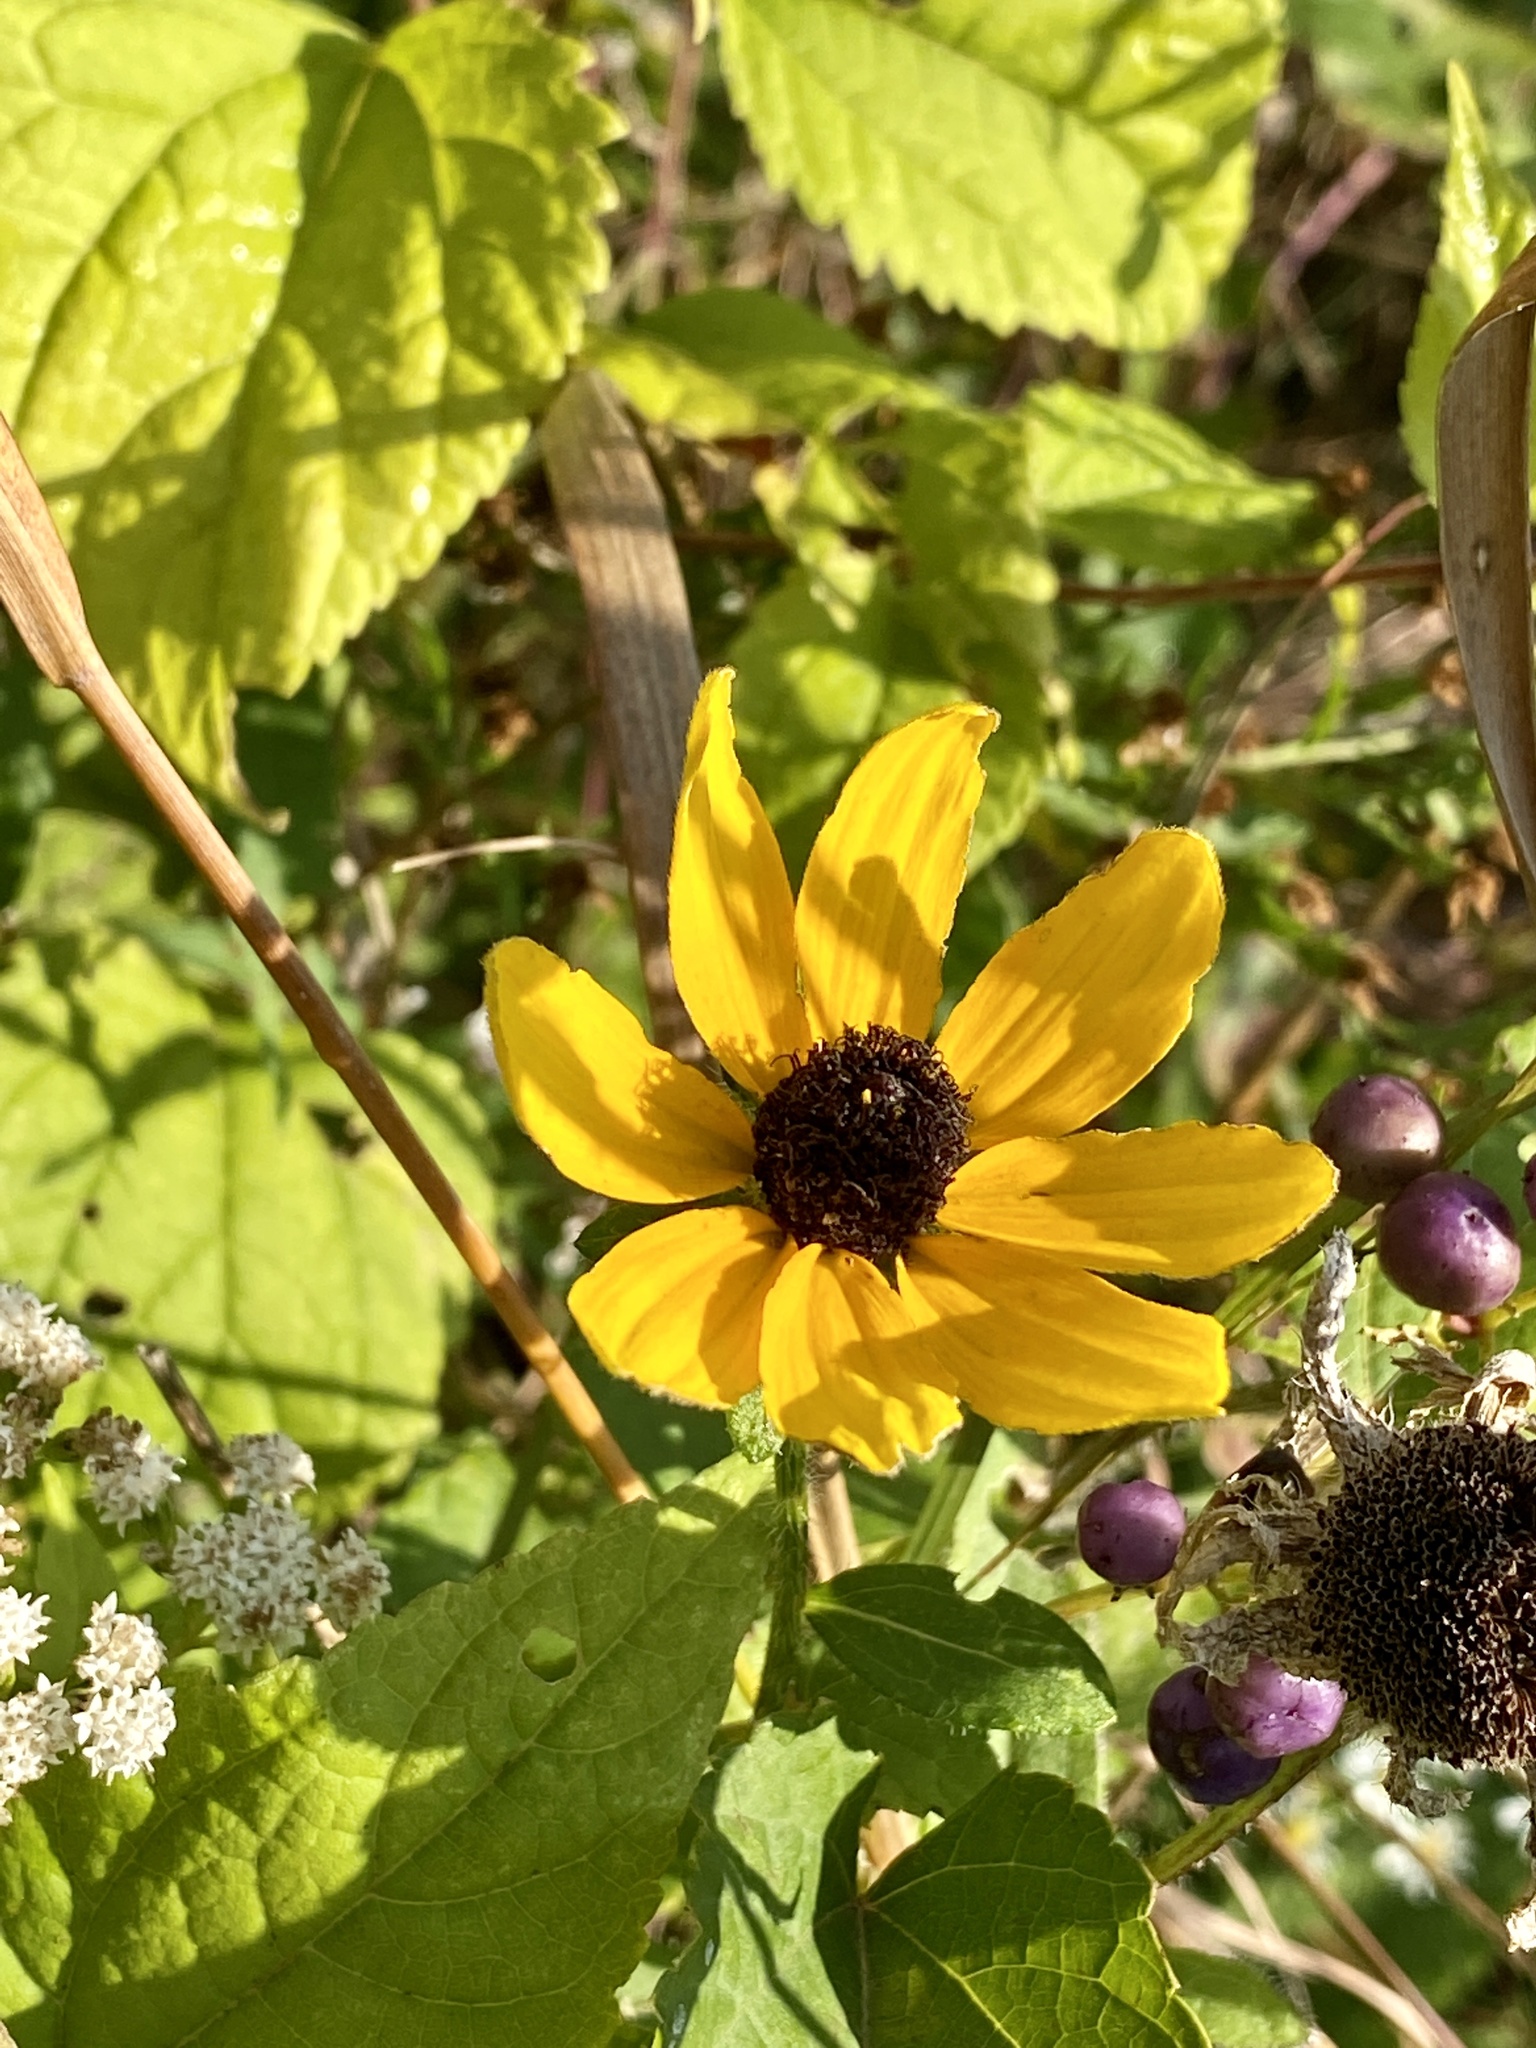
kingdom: Plantae
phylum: Tracheophyta
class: Magnoliopsida
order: Asterales
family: Asteraceae
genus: Rudbeckia
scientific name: Rudbeckia hirta
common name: Black-eyed-susan
